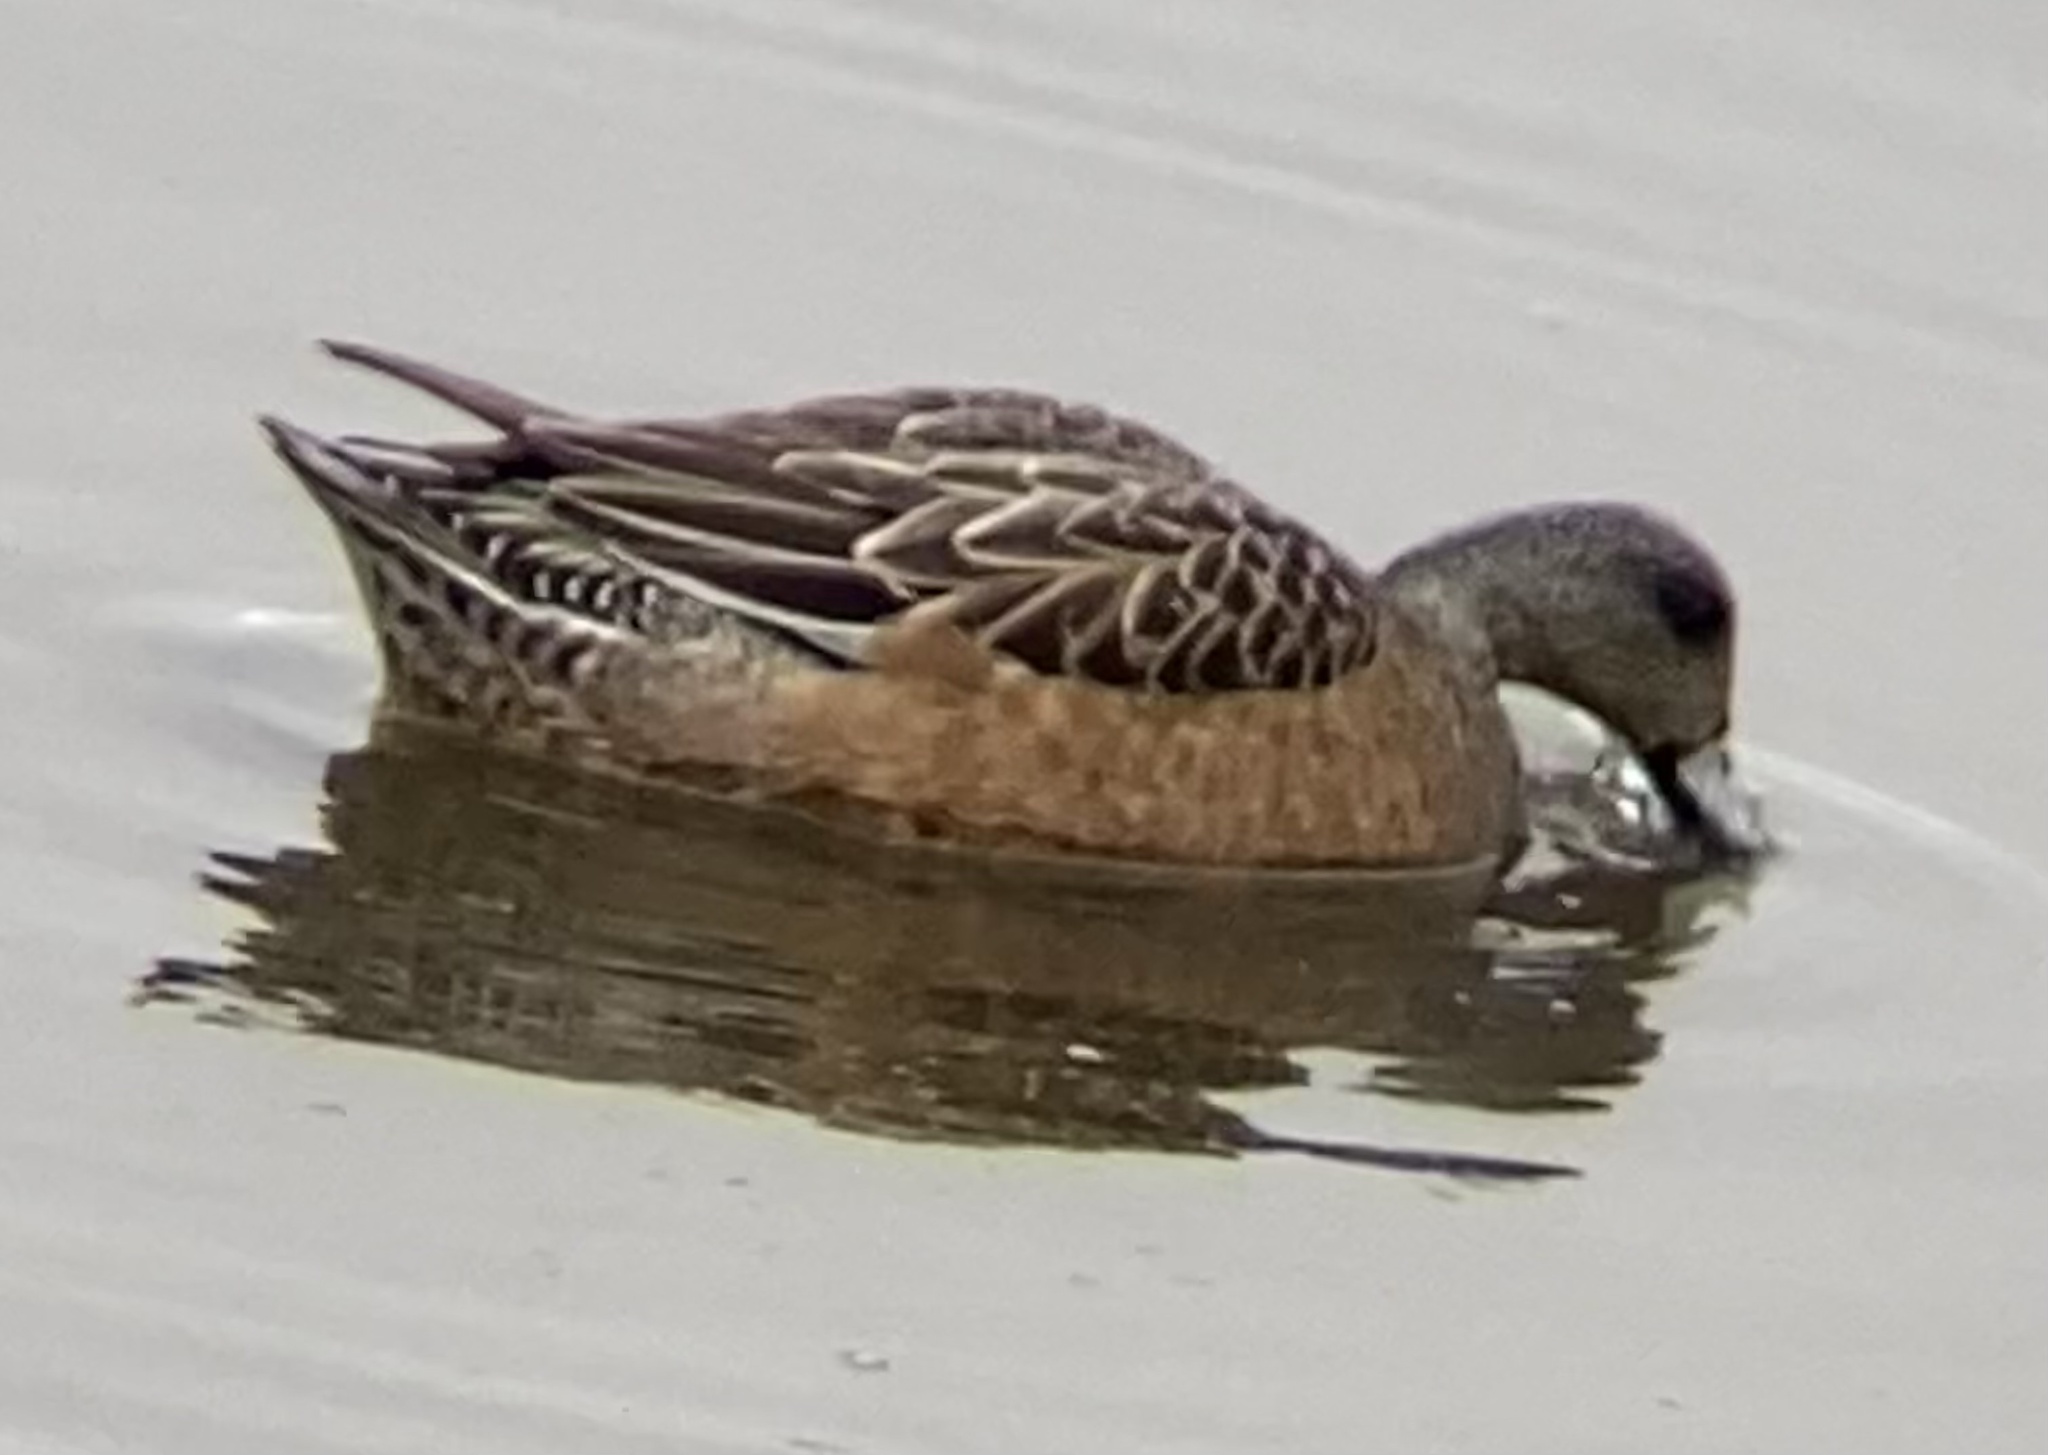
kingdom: Animalia
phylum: Chordata
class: Aves
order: Anseriformes
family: Anatidae
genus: Mareca
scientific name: Mareca americana
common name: American wigeon
